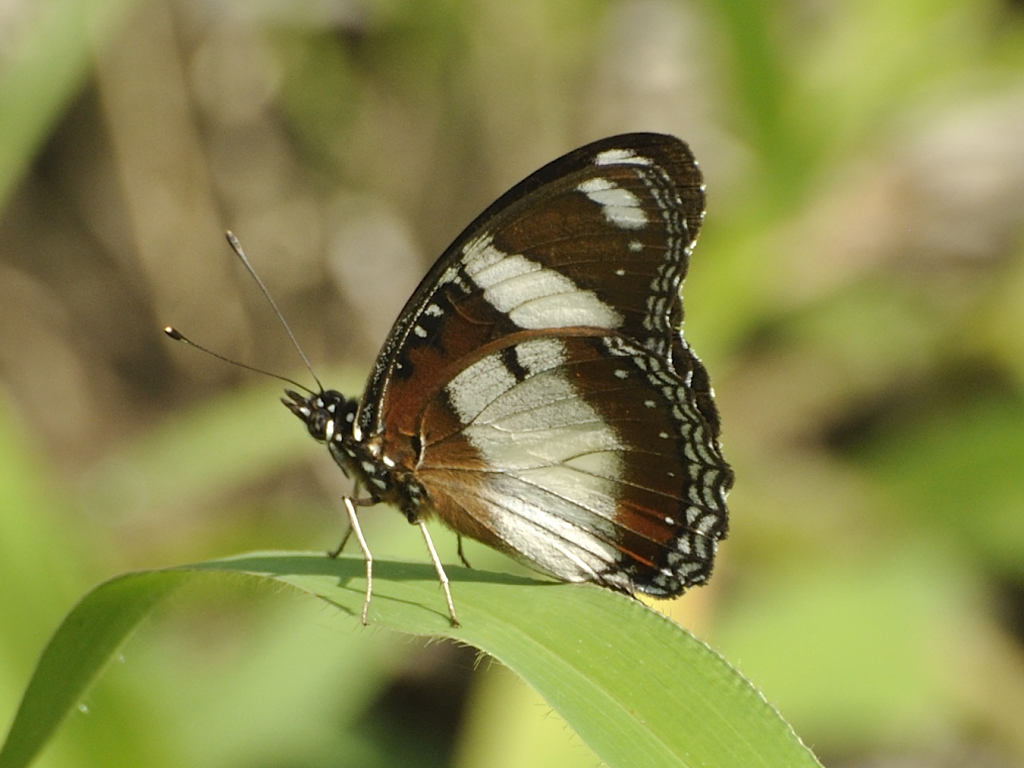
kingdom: Animalia
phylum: Arthropoda
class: Insecta
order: Lepidoptera
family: Nymphalidae
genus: Hypolimnas
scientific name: Hypolimnas misippus
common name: False plain tiger
